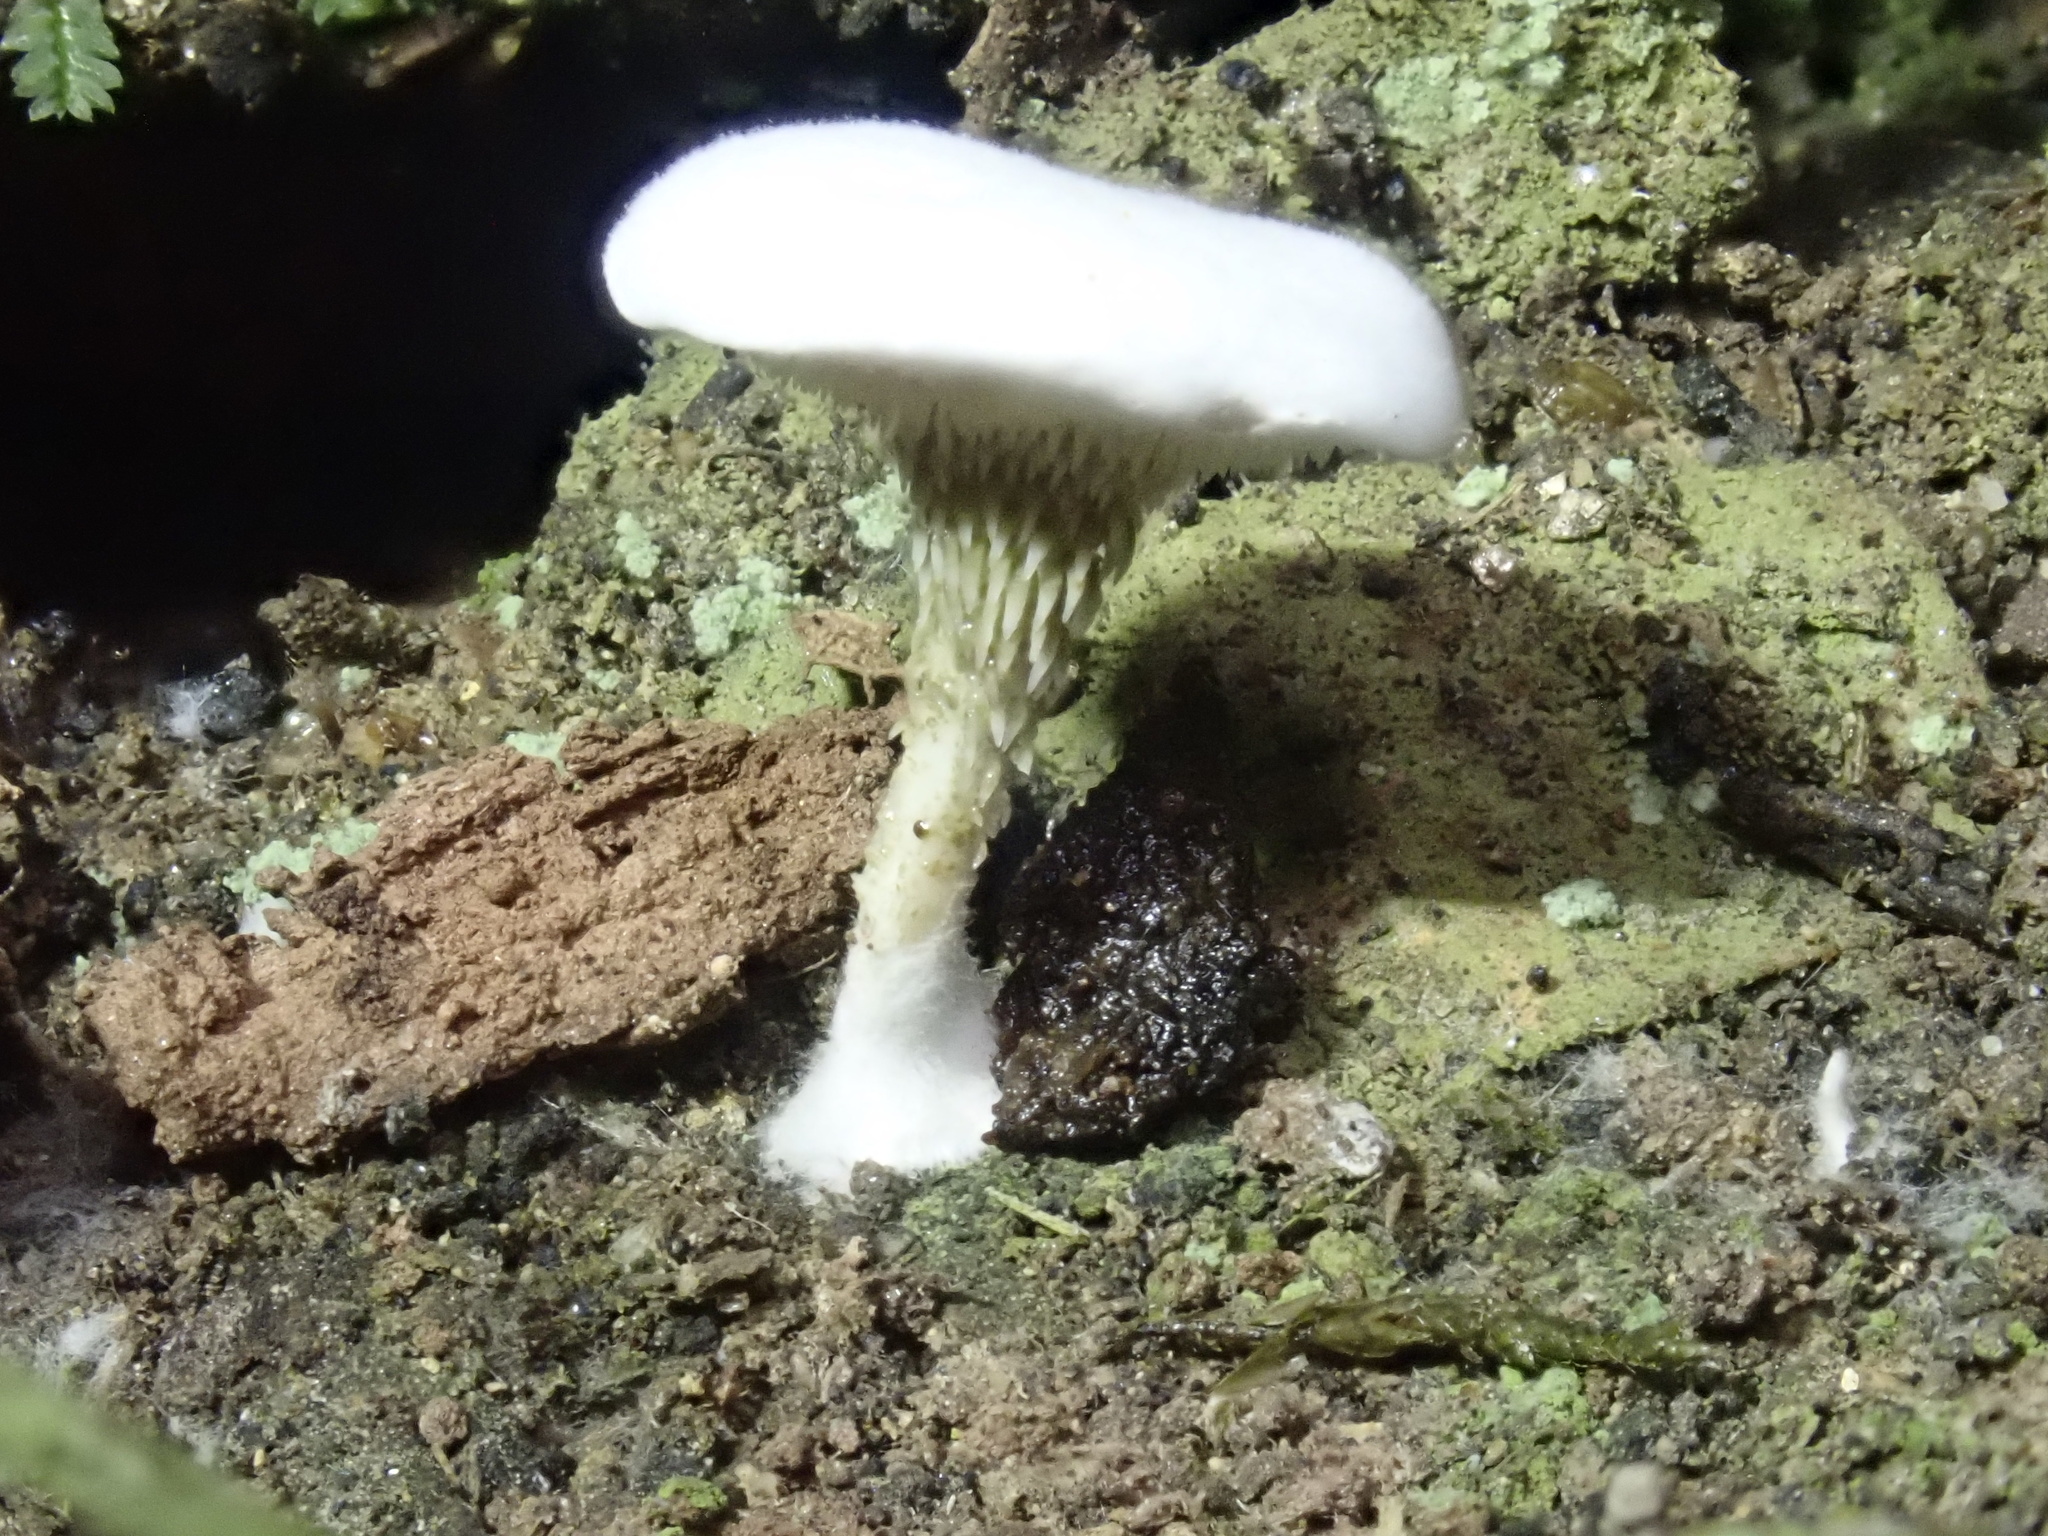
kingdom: Fungi
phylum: Basidiomycota
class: Agaricomycetes
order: Gomphales
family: Clavariadelphaceae
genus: Beenakia
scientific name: Beenakia dacostae
